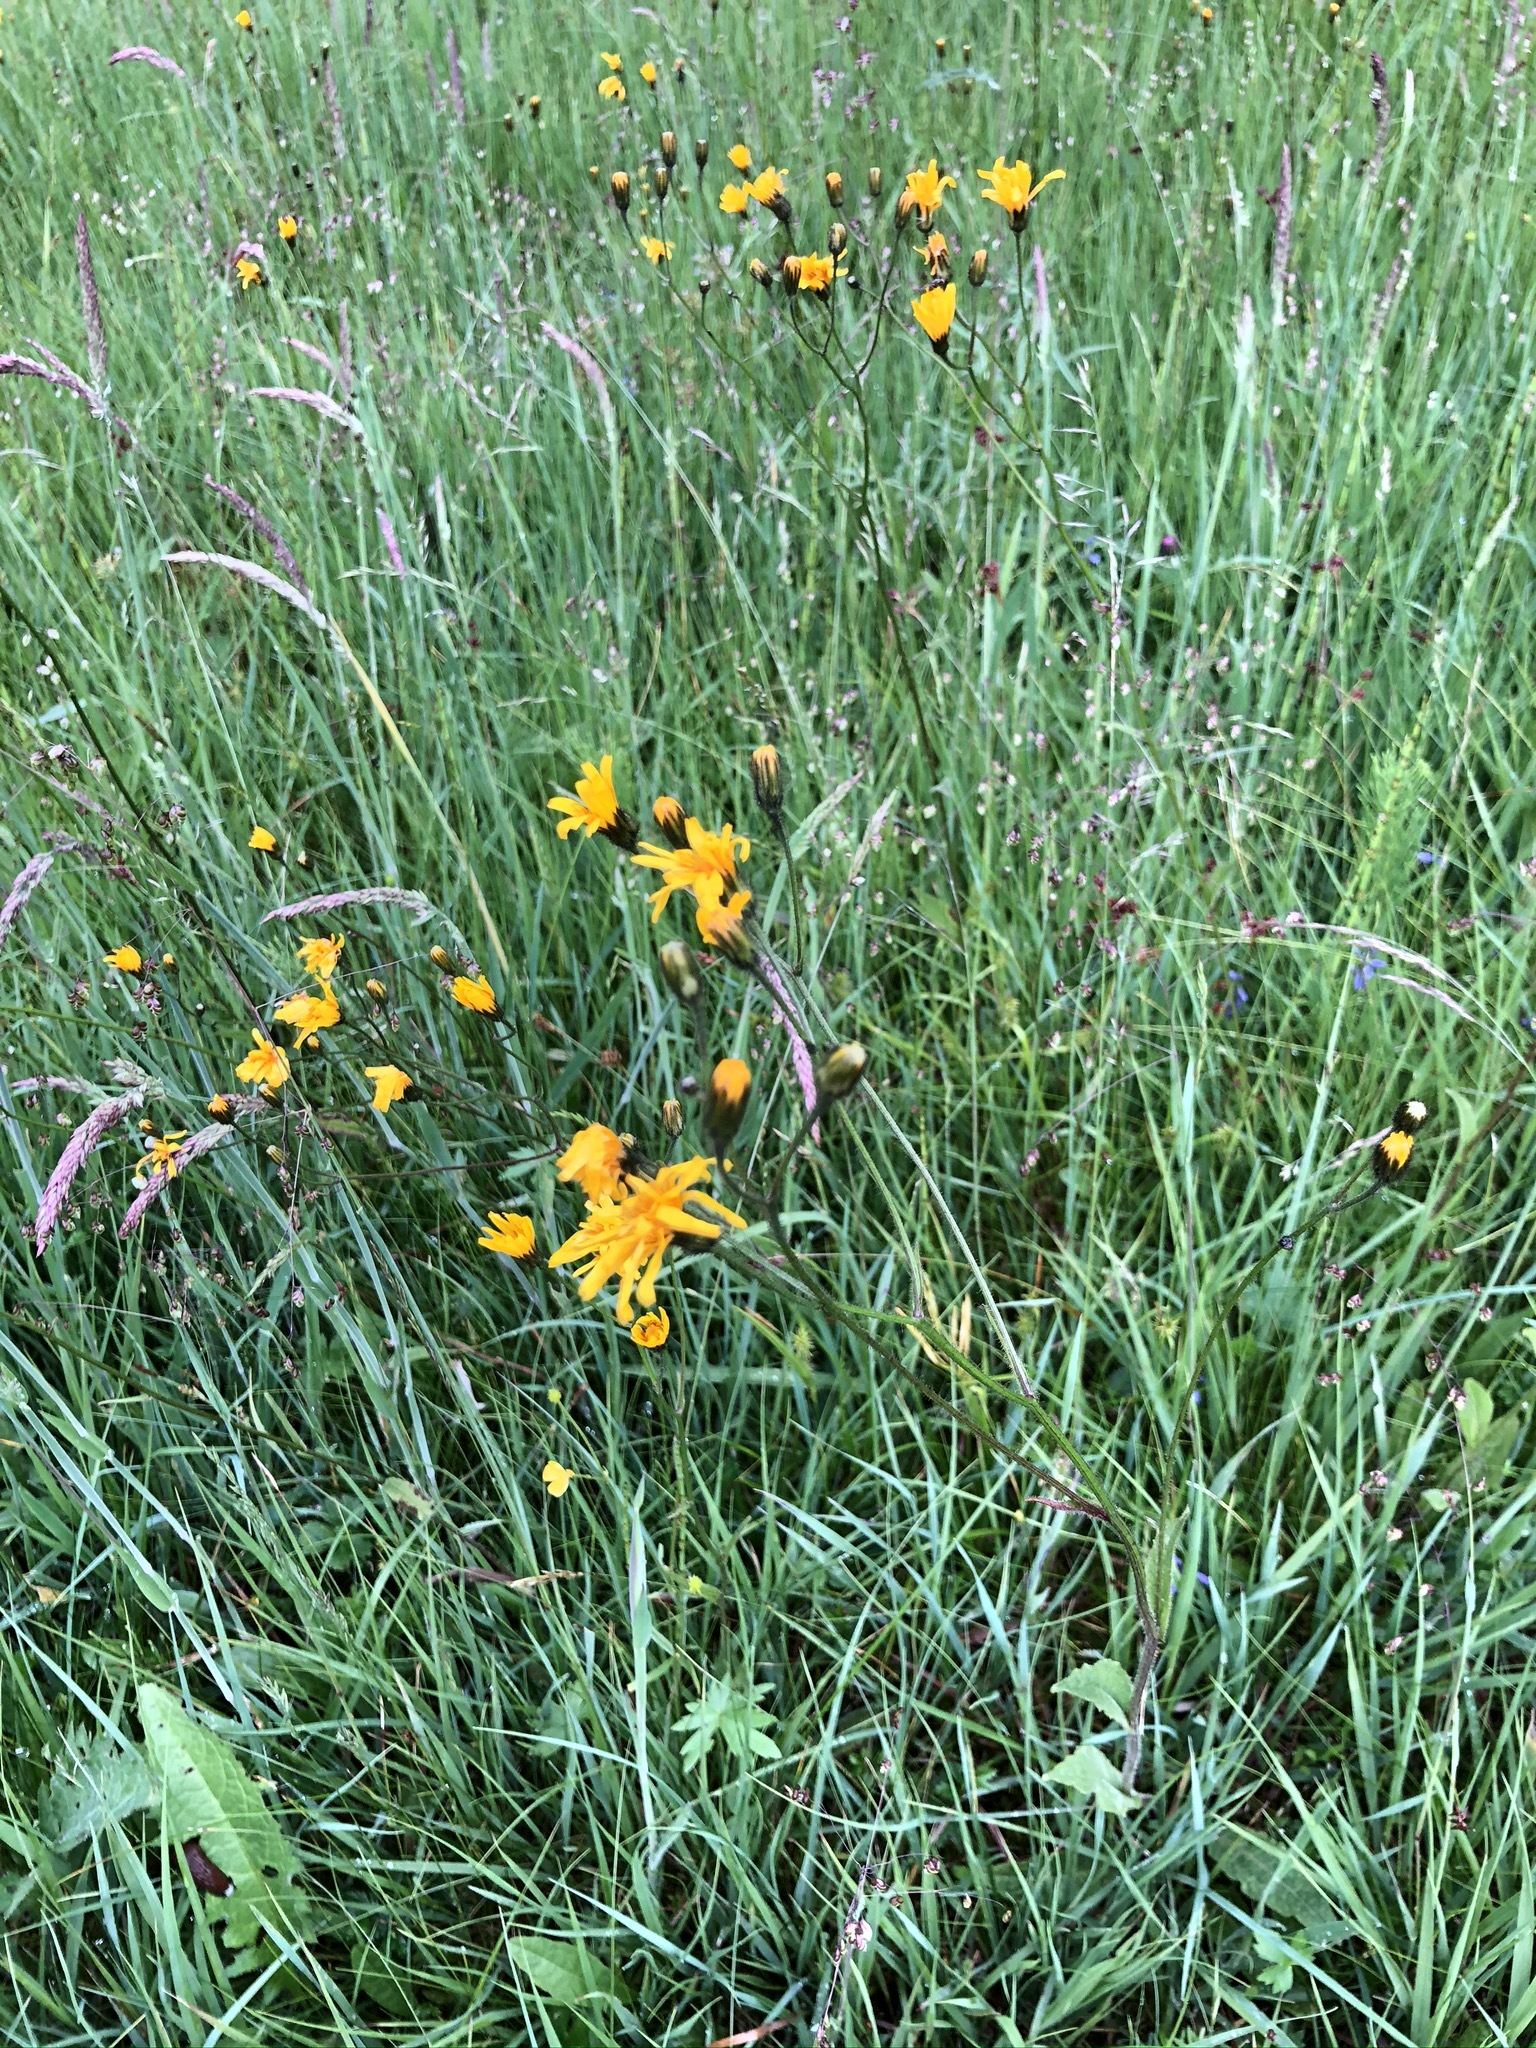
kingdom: Plantae
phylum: Tracheophyta
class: Magnoliopsida
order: Asterales
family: Asteraceae
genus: Crepis
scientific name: Crepis paludosa
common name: Marsh hawk's-beard
